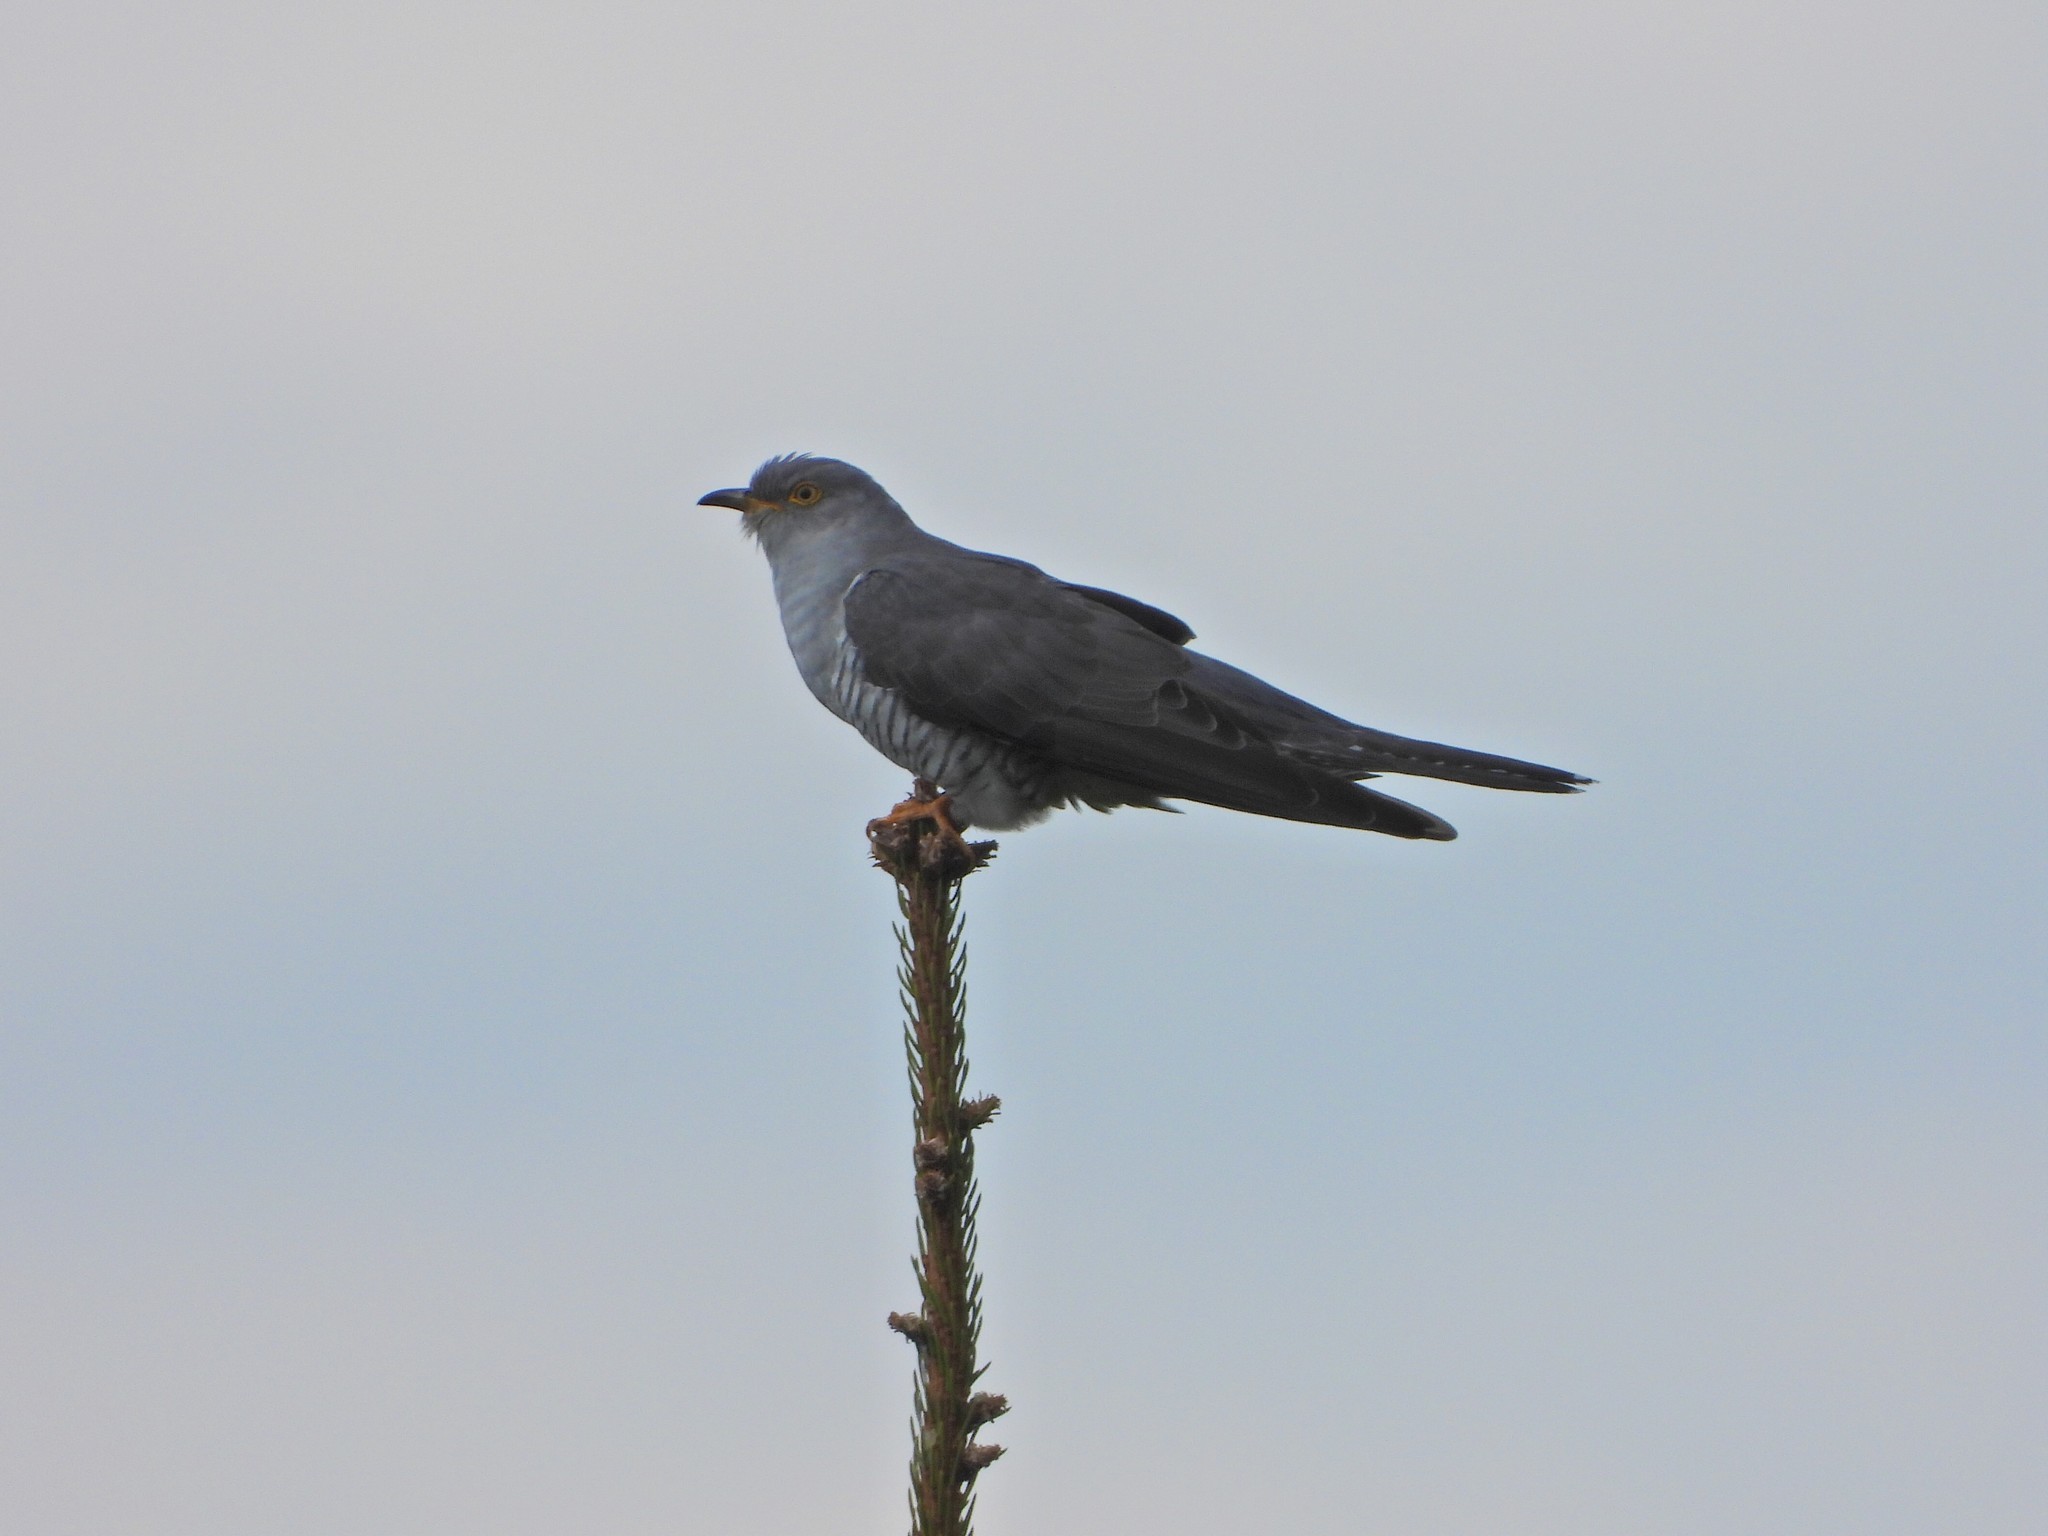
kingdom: Animalia
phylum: Chordata
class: Aves
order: Cuculiformes
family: Cuculidae
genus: Cuculus
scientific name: Cuculus canorus
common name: Common cuckoo
